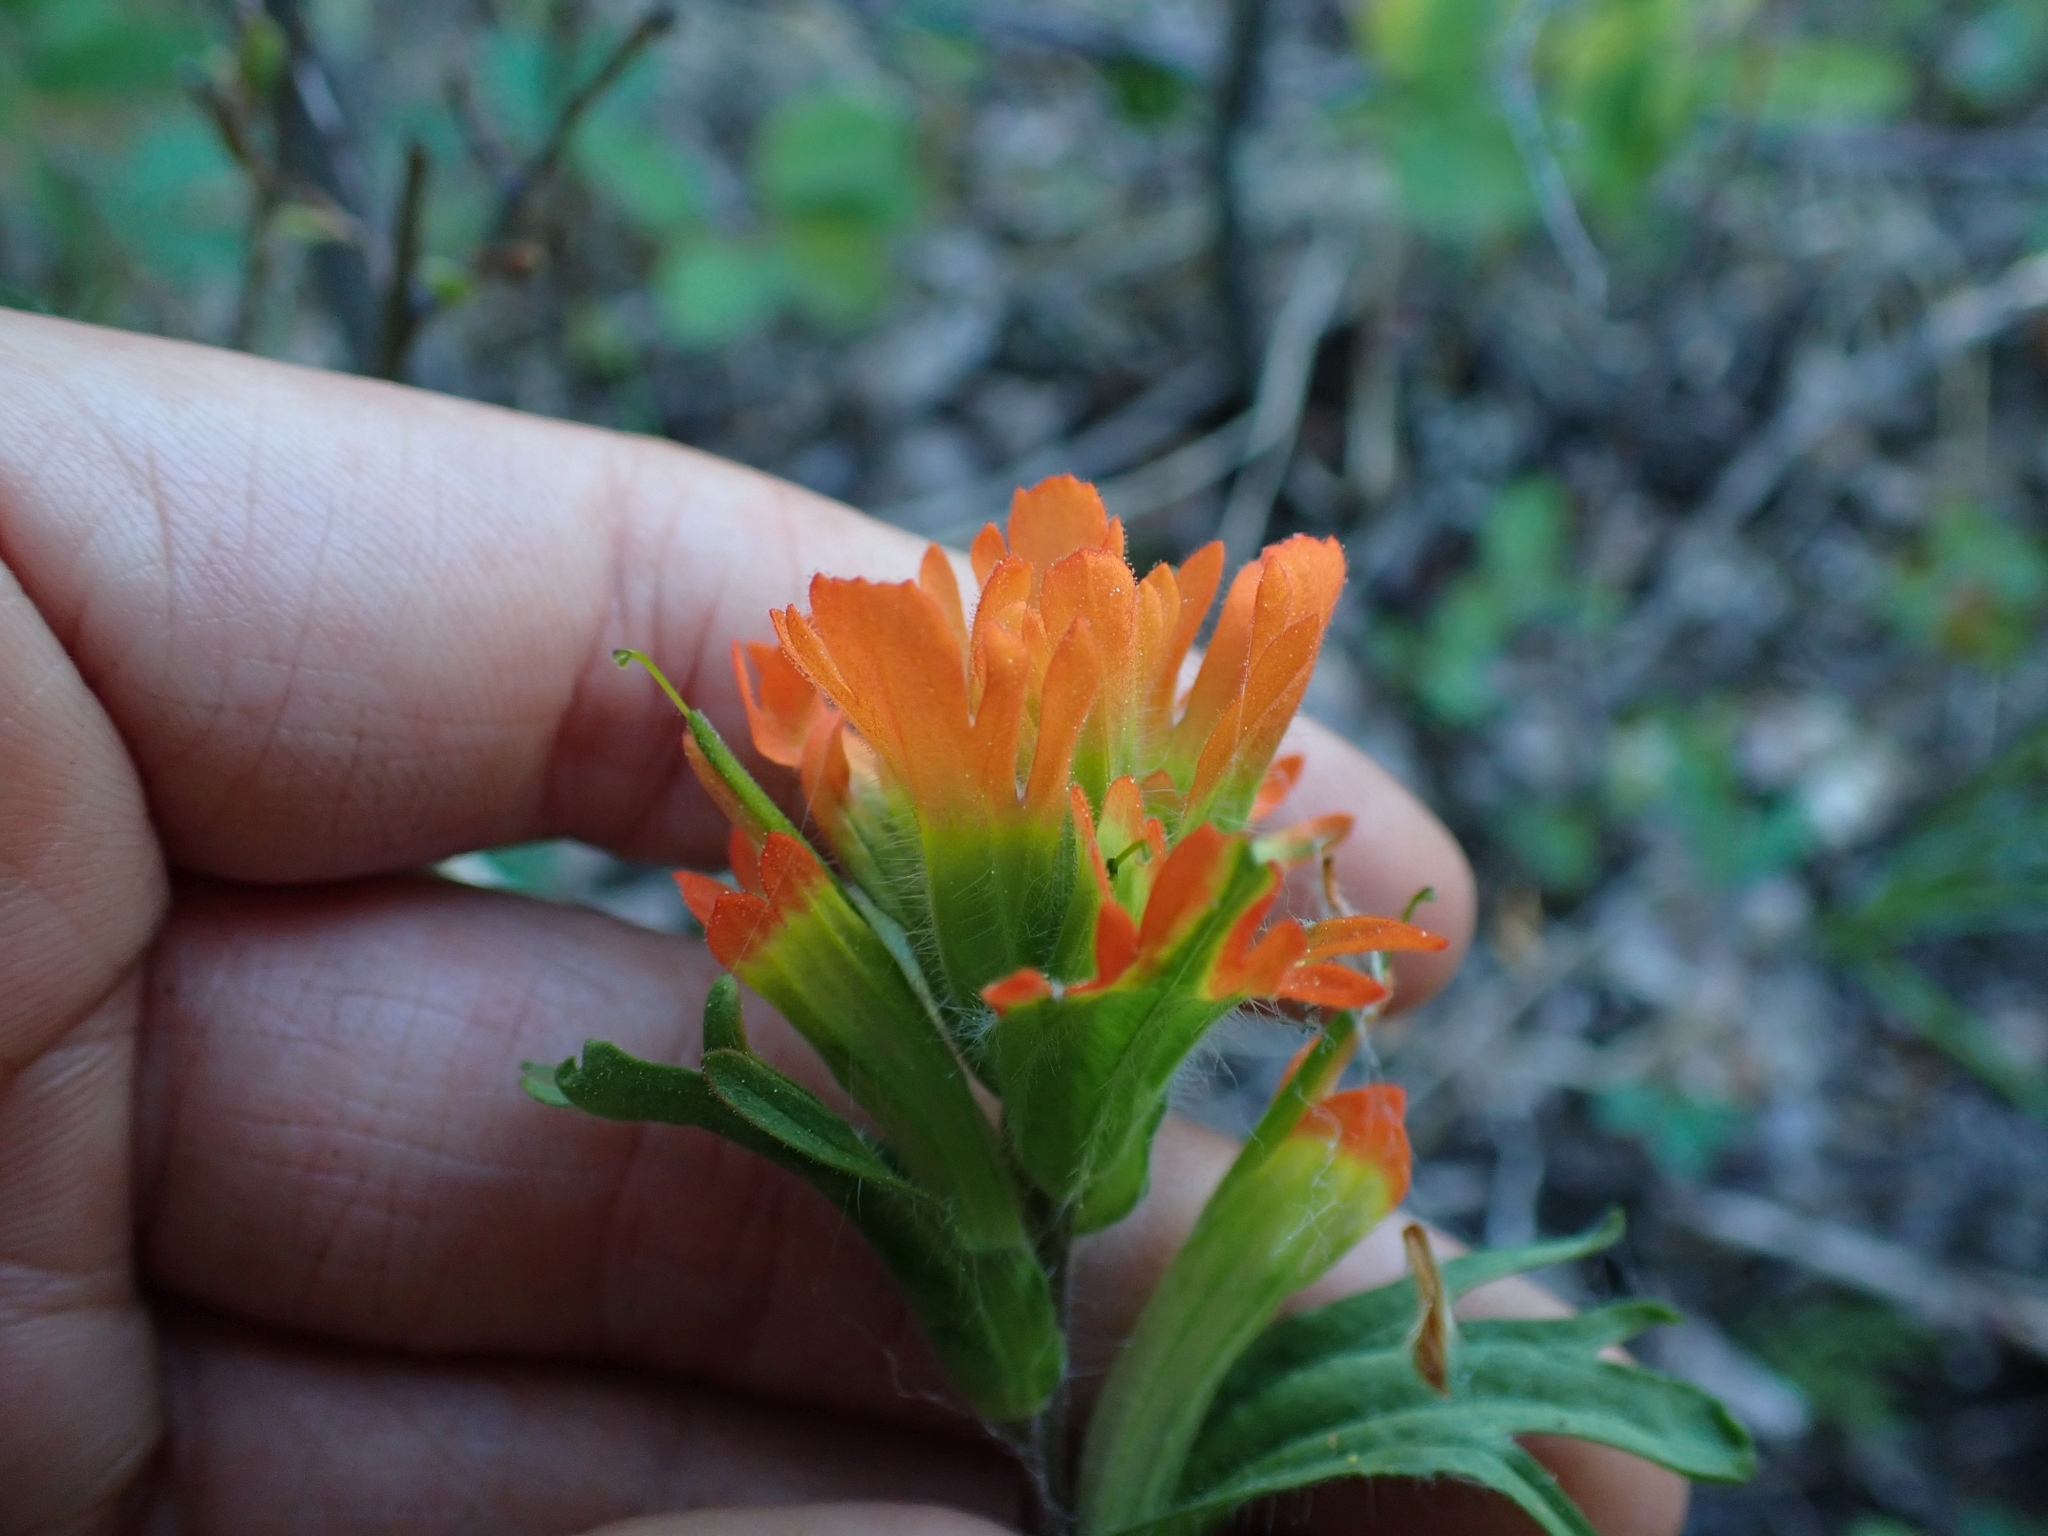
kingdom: Plantae
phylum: Tracheophyta
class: Magnoliopsida
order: Lamiales
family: Orobanchaceae
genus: Castilleja
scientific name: Castilleja hispida
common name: Bristly paintbrush
